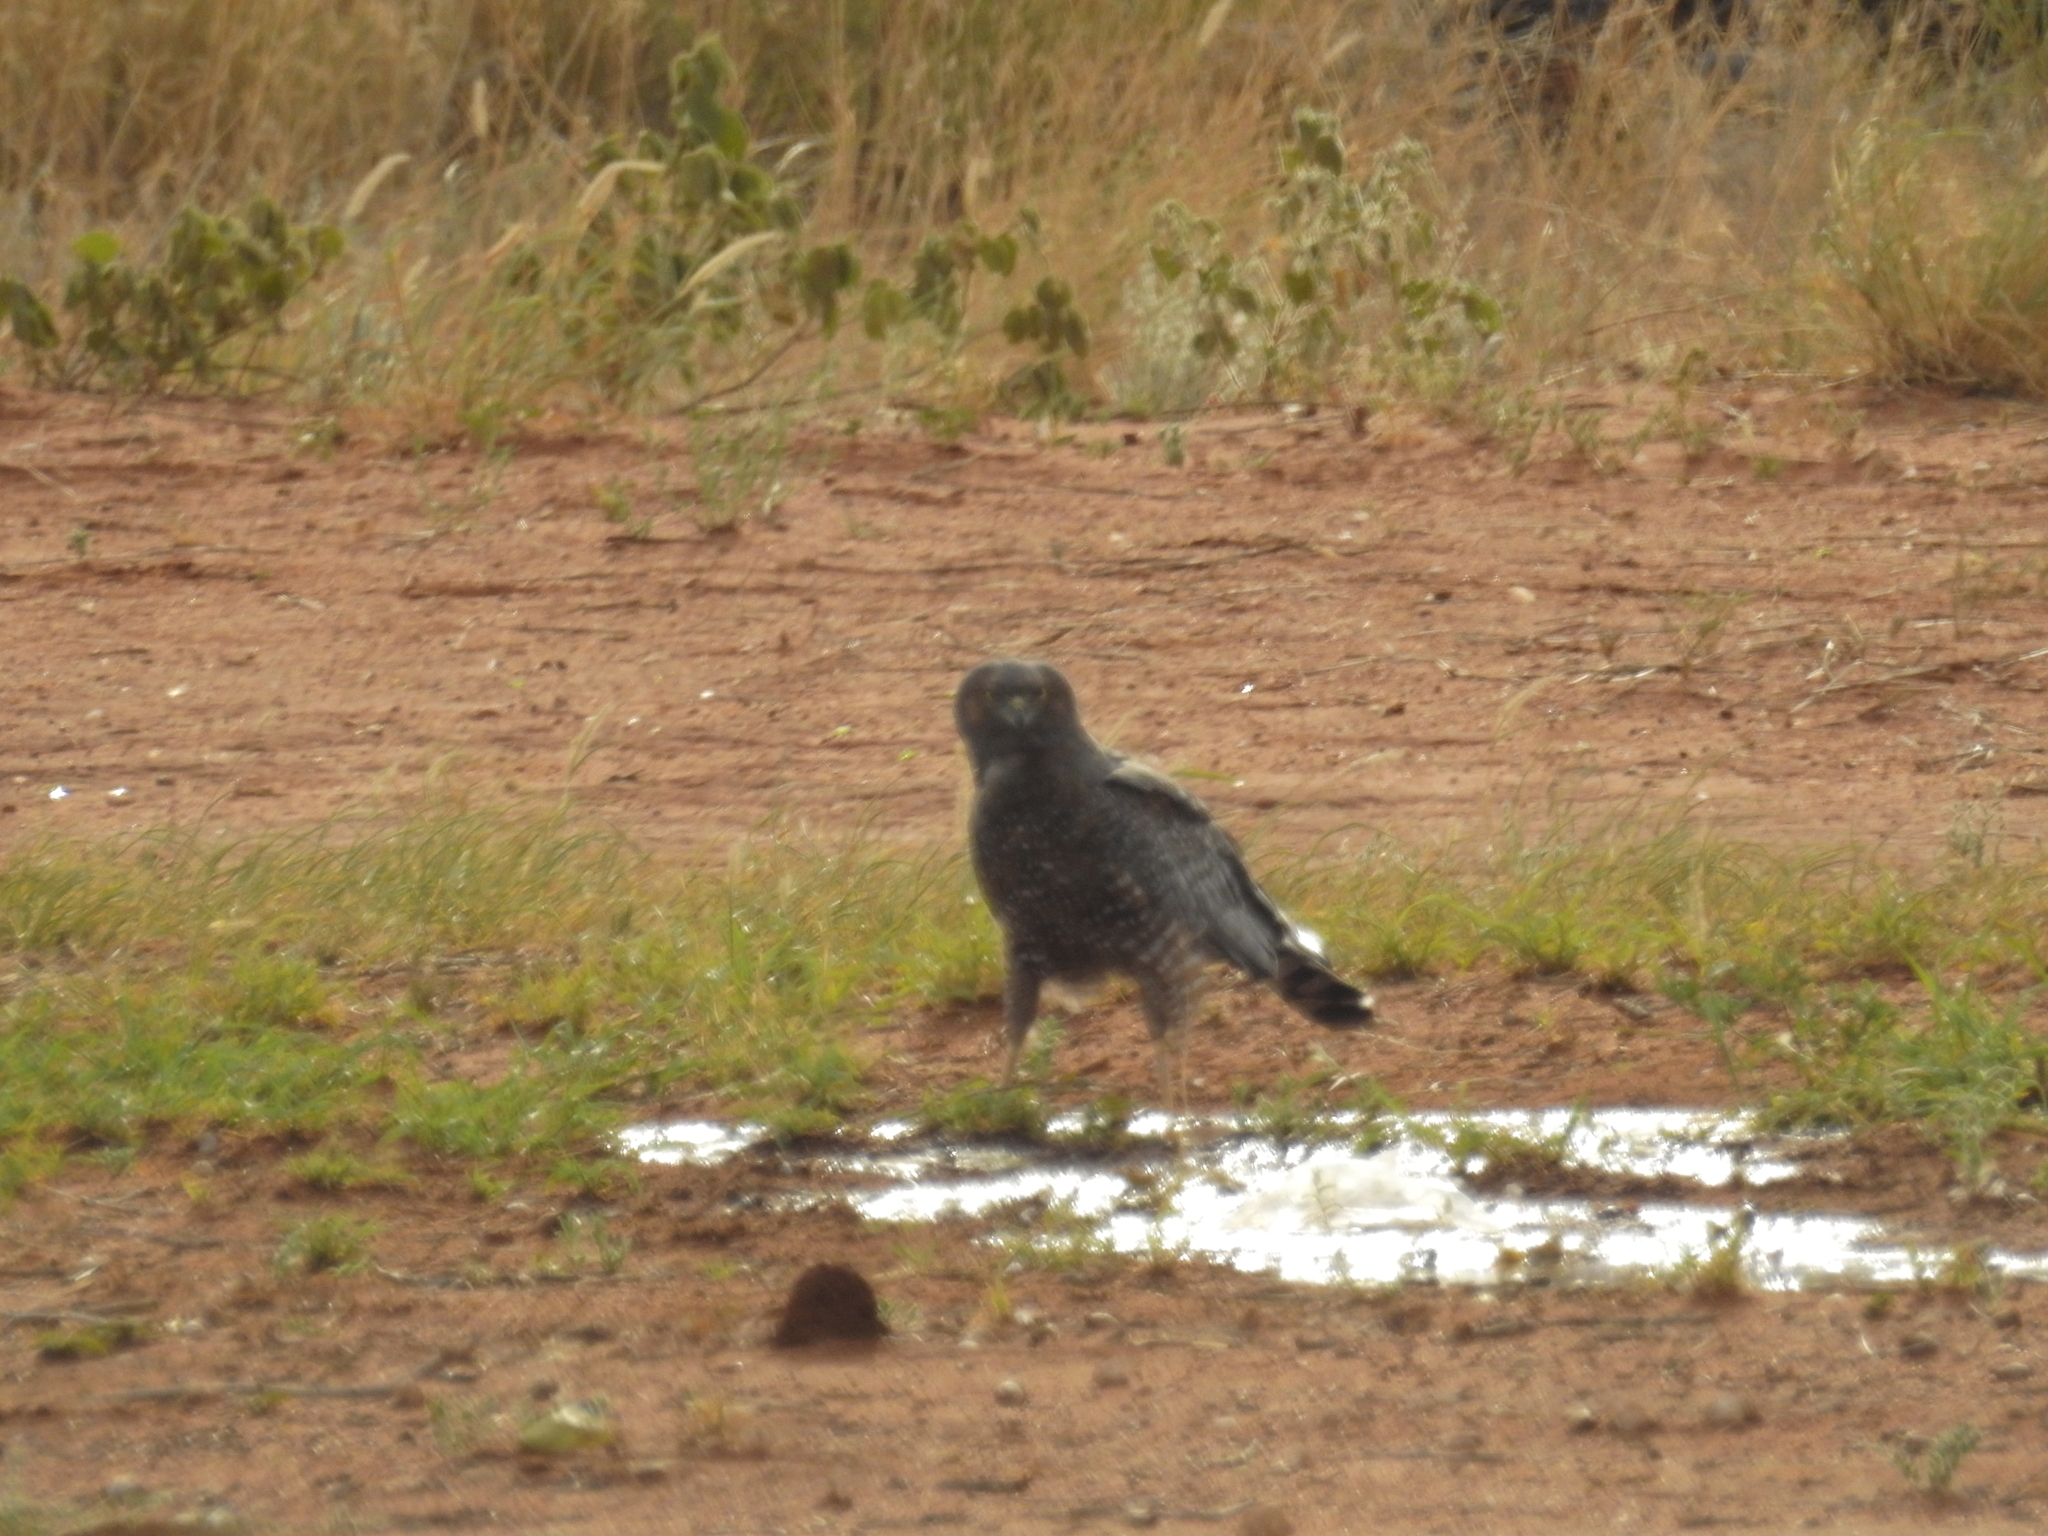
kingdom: Animalia
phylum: Chordata
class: Aves
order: Accipitriformes
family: Accipitridae
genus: Circus
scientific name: Circus assimilis
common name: Spotted harrier
